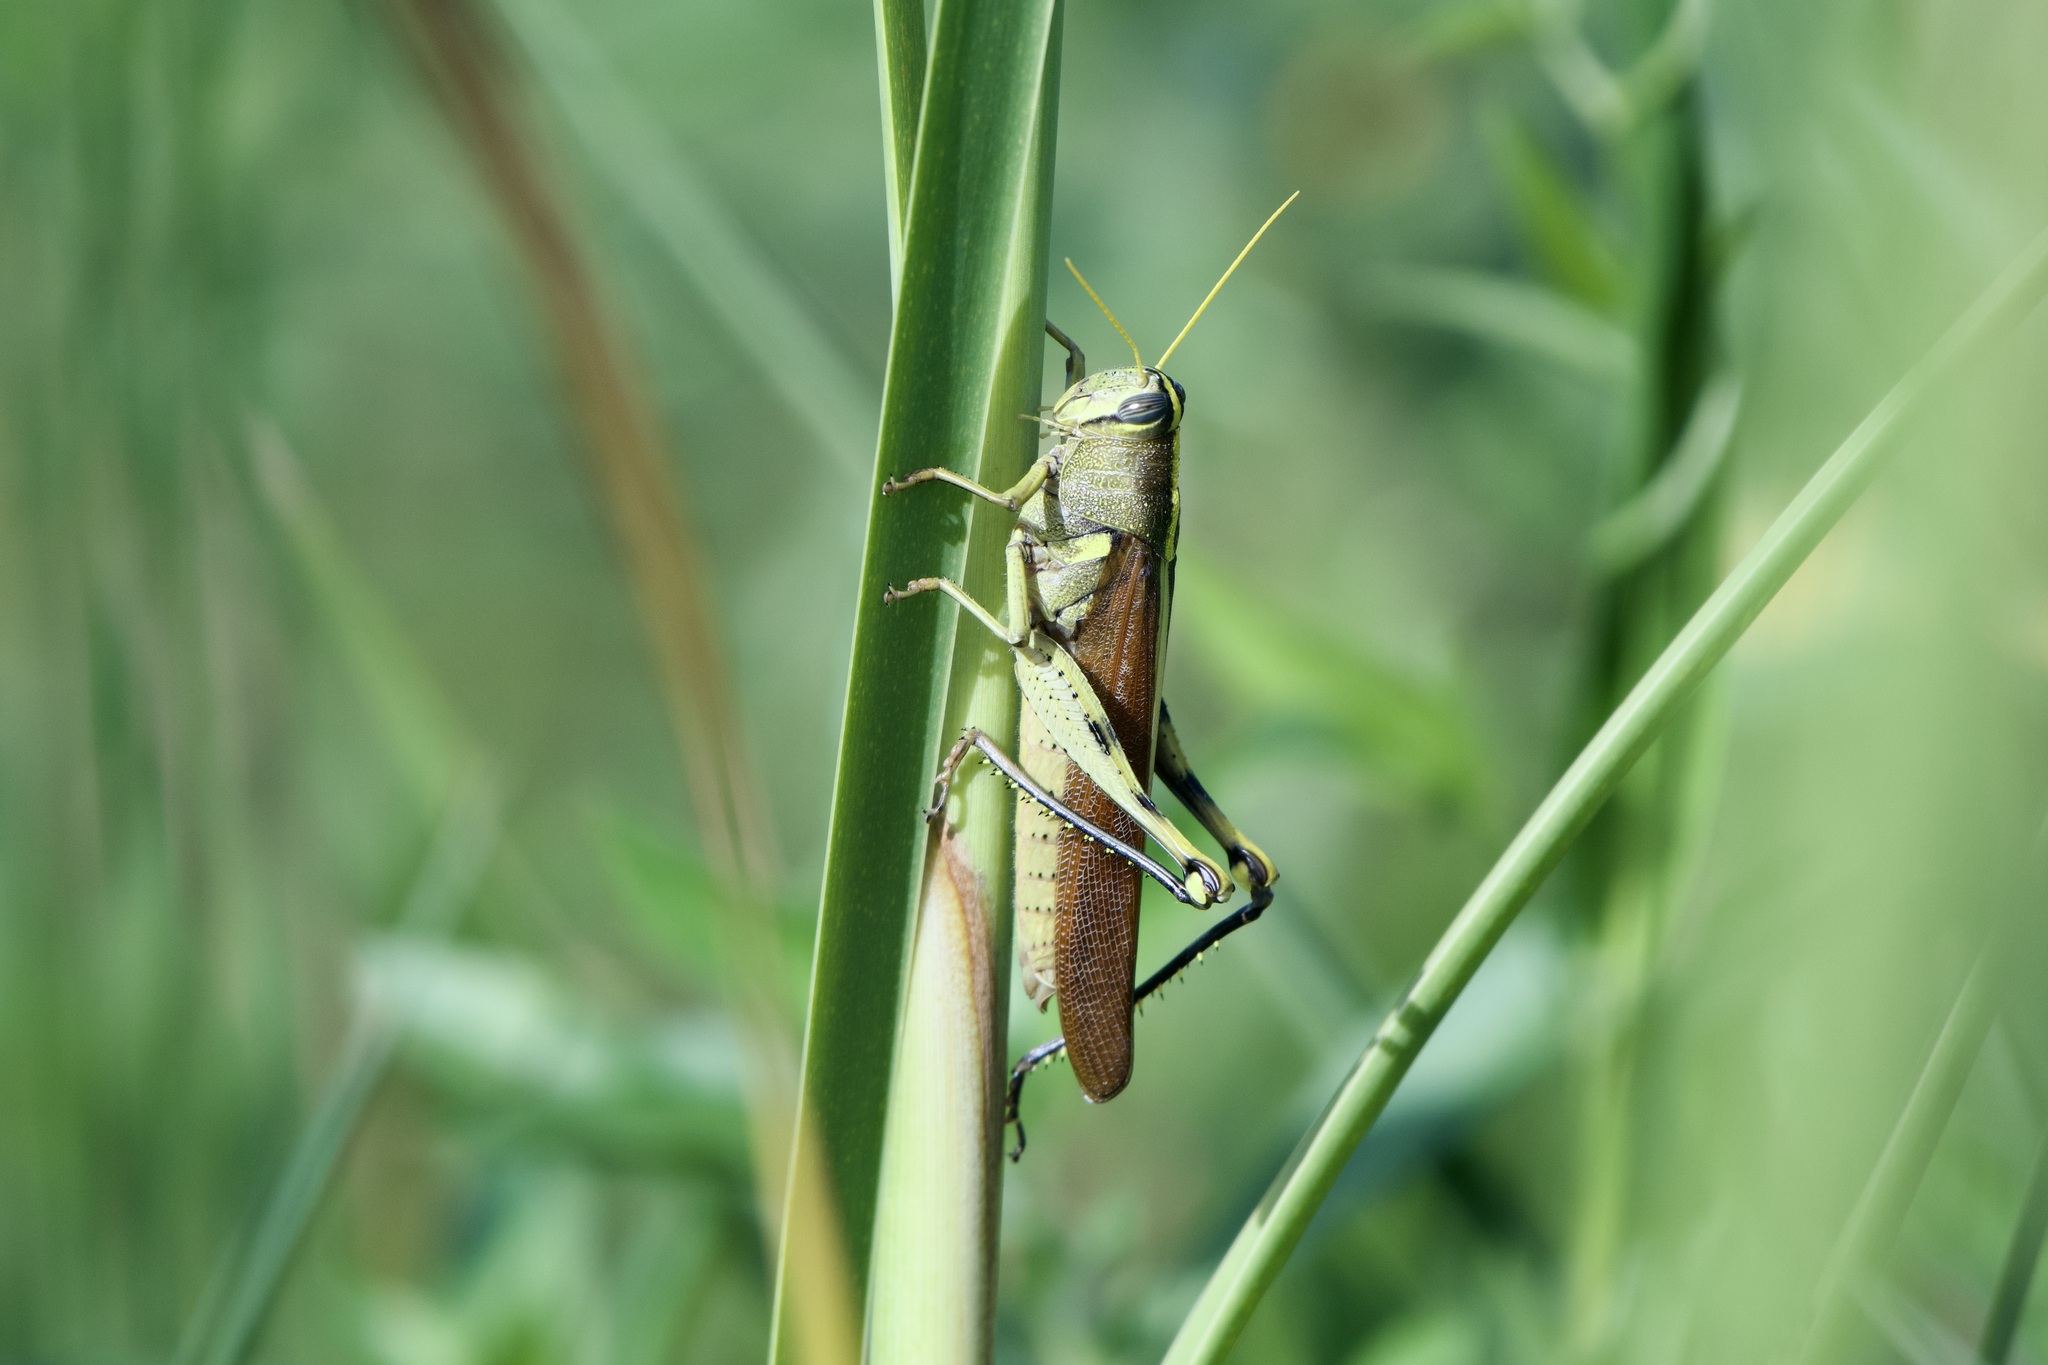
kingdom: Animalia
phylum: Arthropoda
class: Insecta
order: Orthoptera
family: Acrididae
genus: Schistocerca
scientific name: Schistocerca obscura
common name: Obscure bird grasshopper
